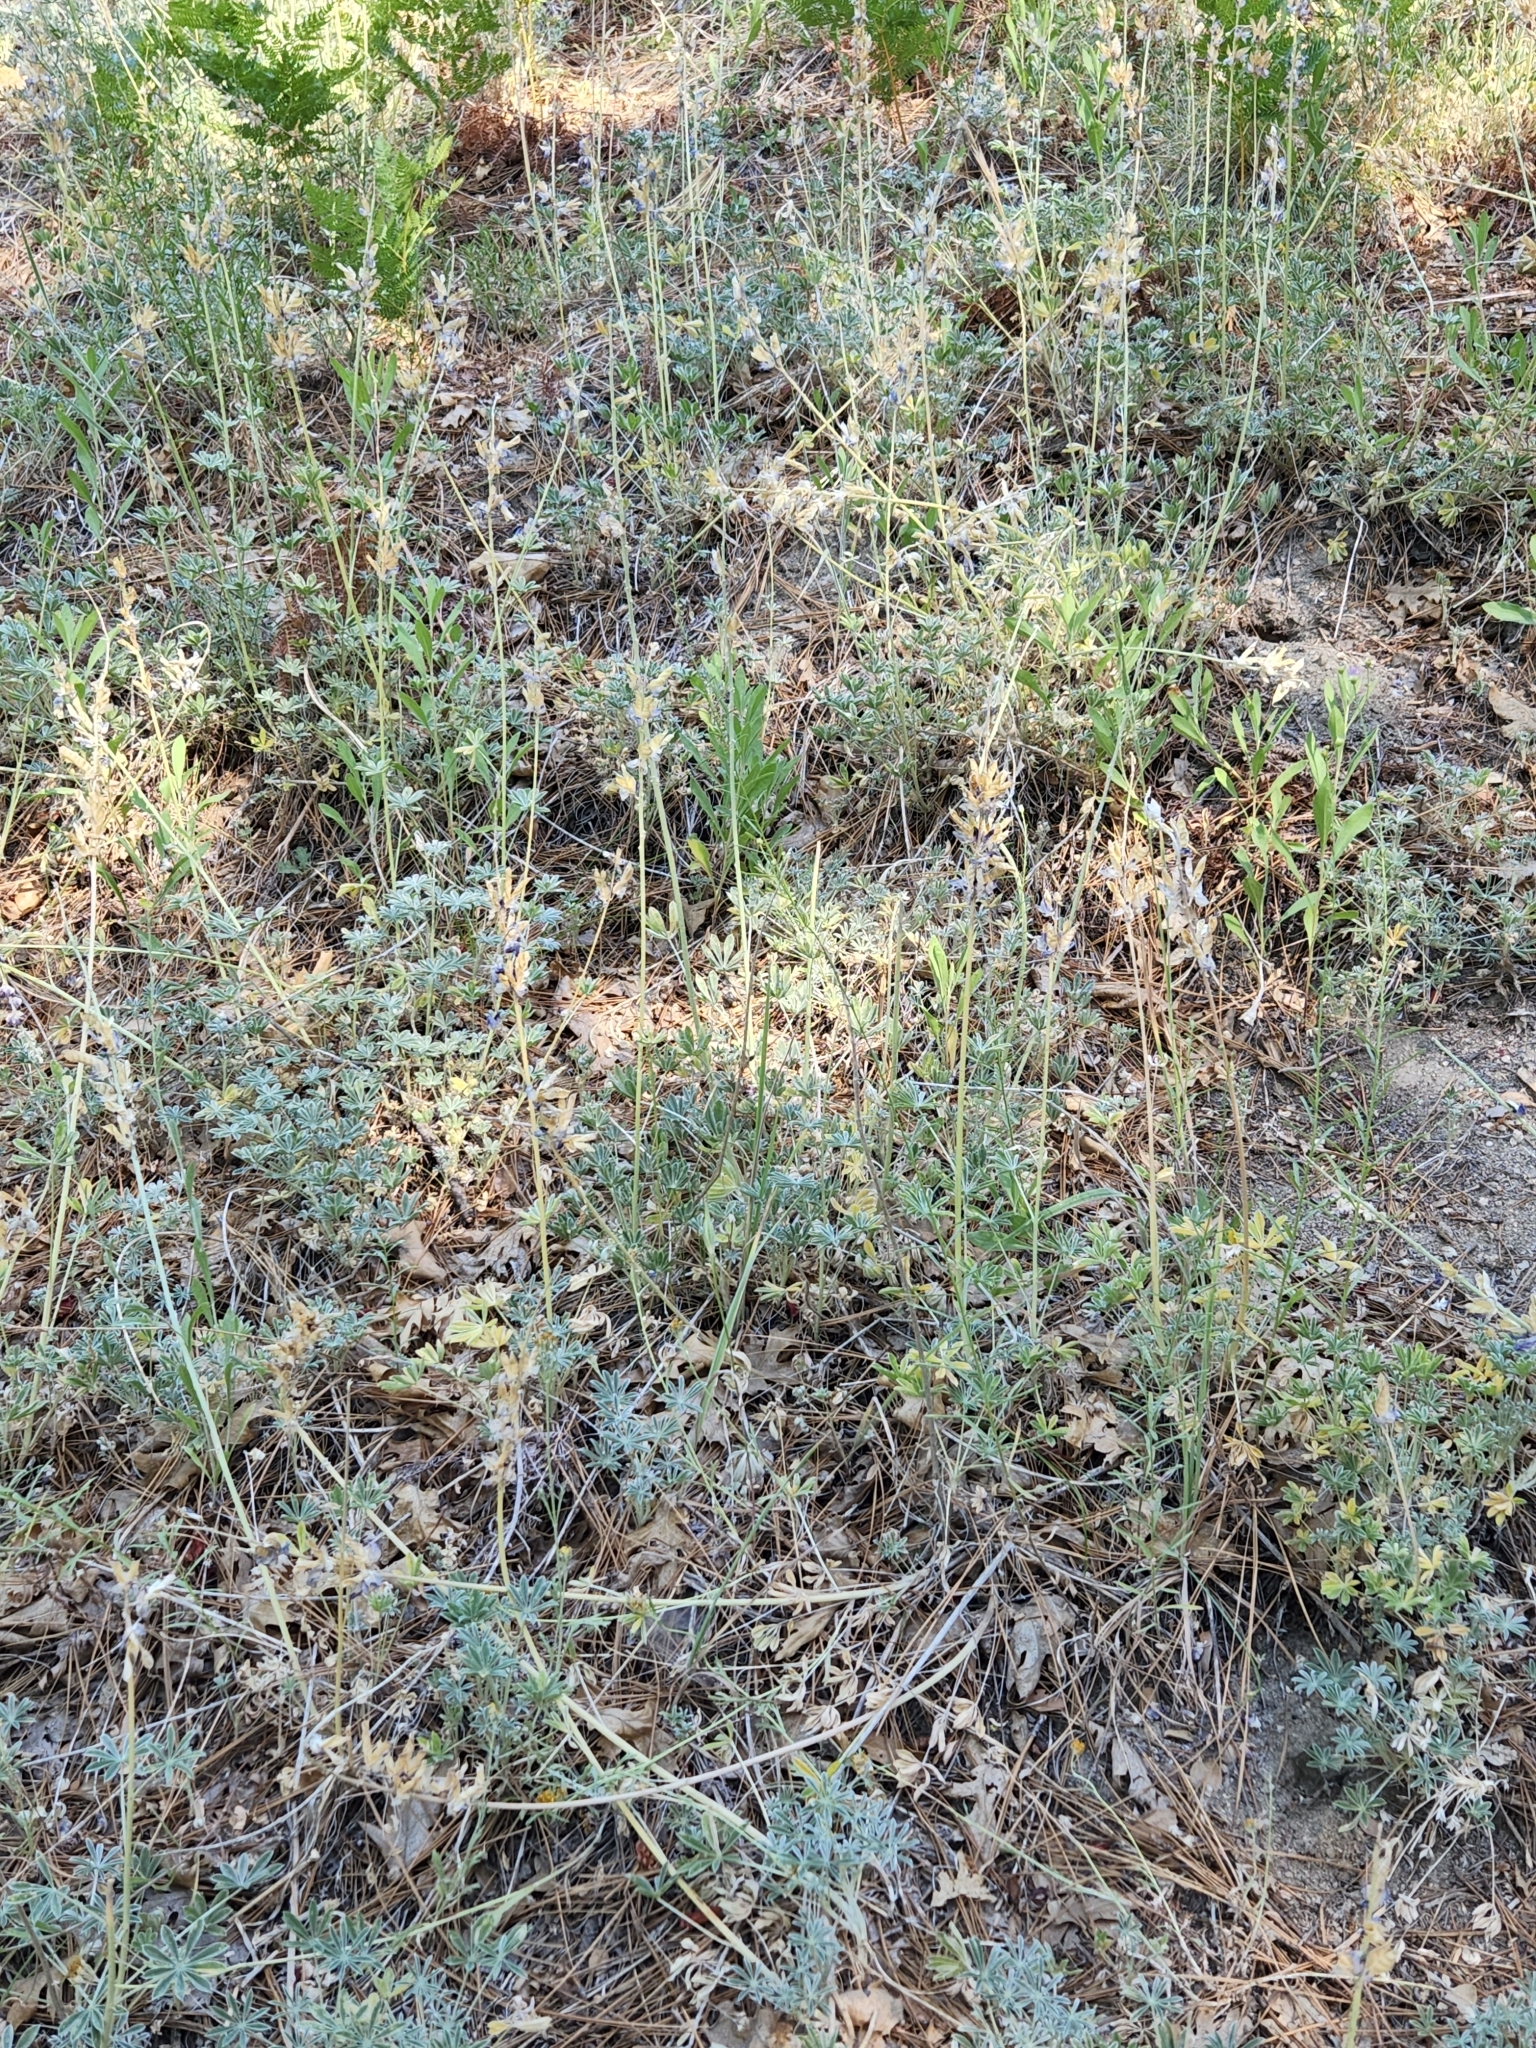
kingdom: Plantae
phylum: Tracheophyta
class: Magnoliopsida
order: Fabales
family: Fabaceae
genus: Lupinus
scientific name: Lupinus excubitus
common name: Grape soda lupine
